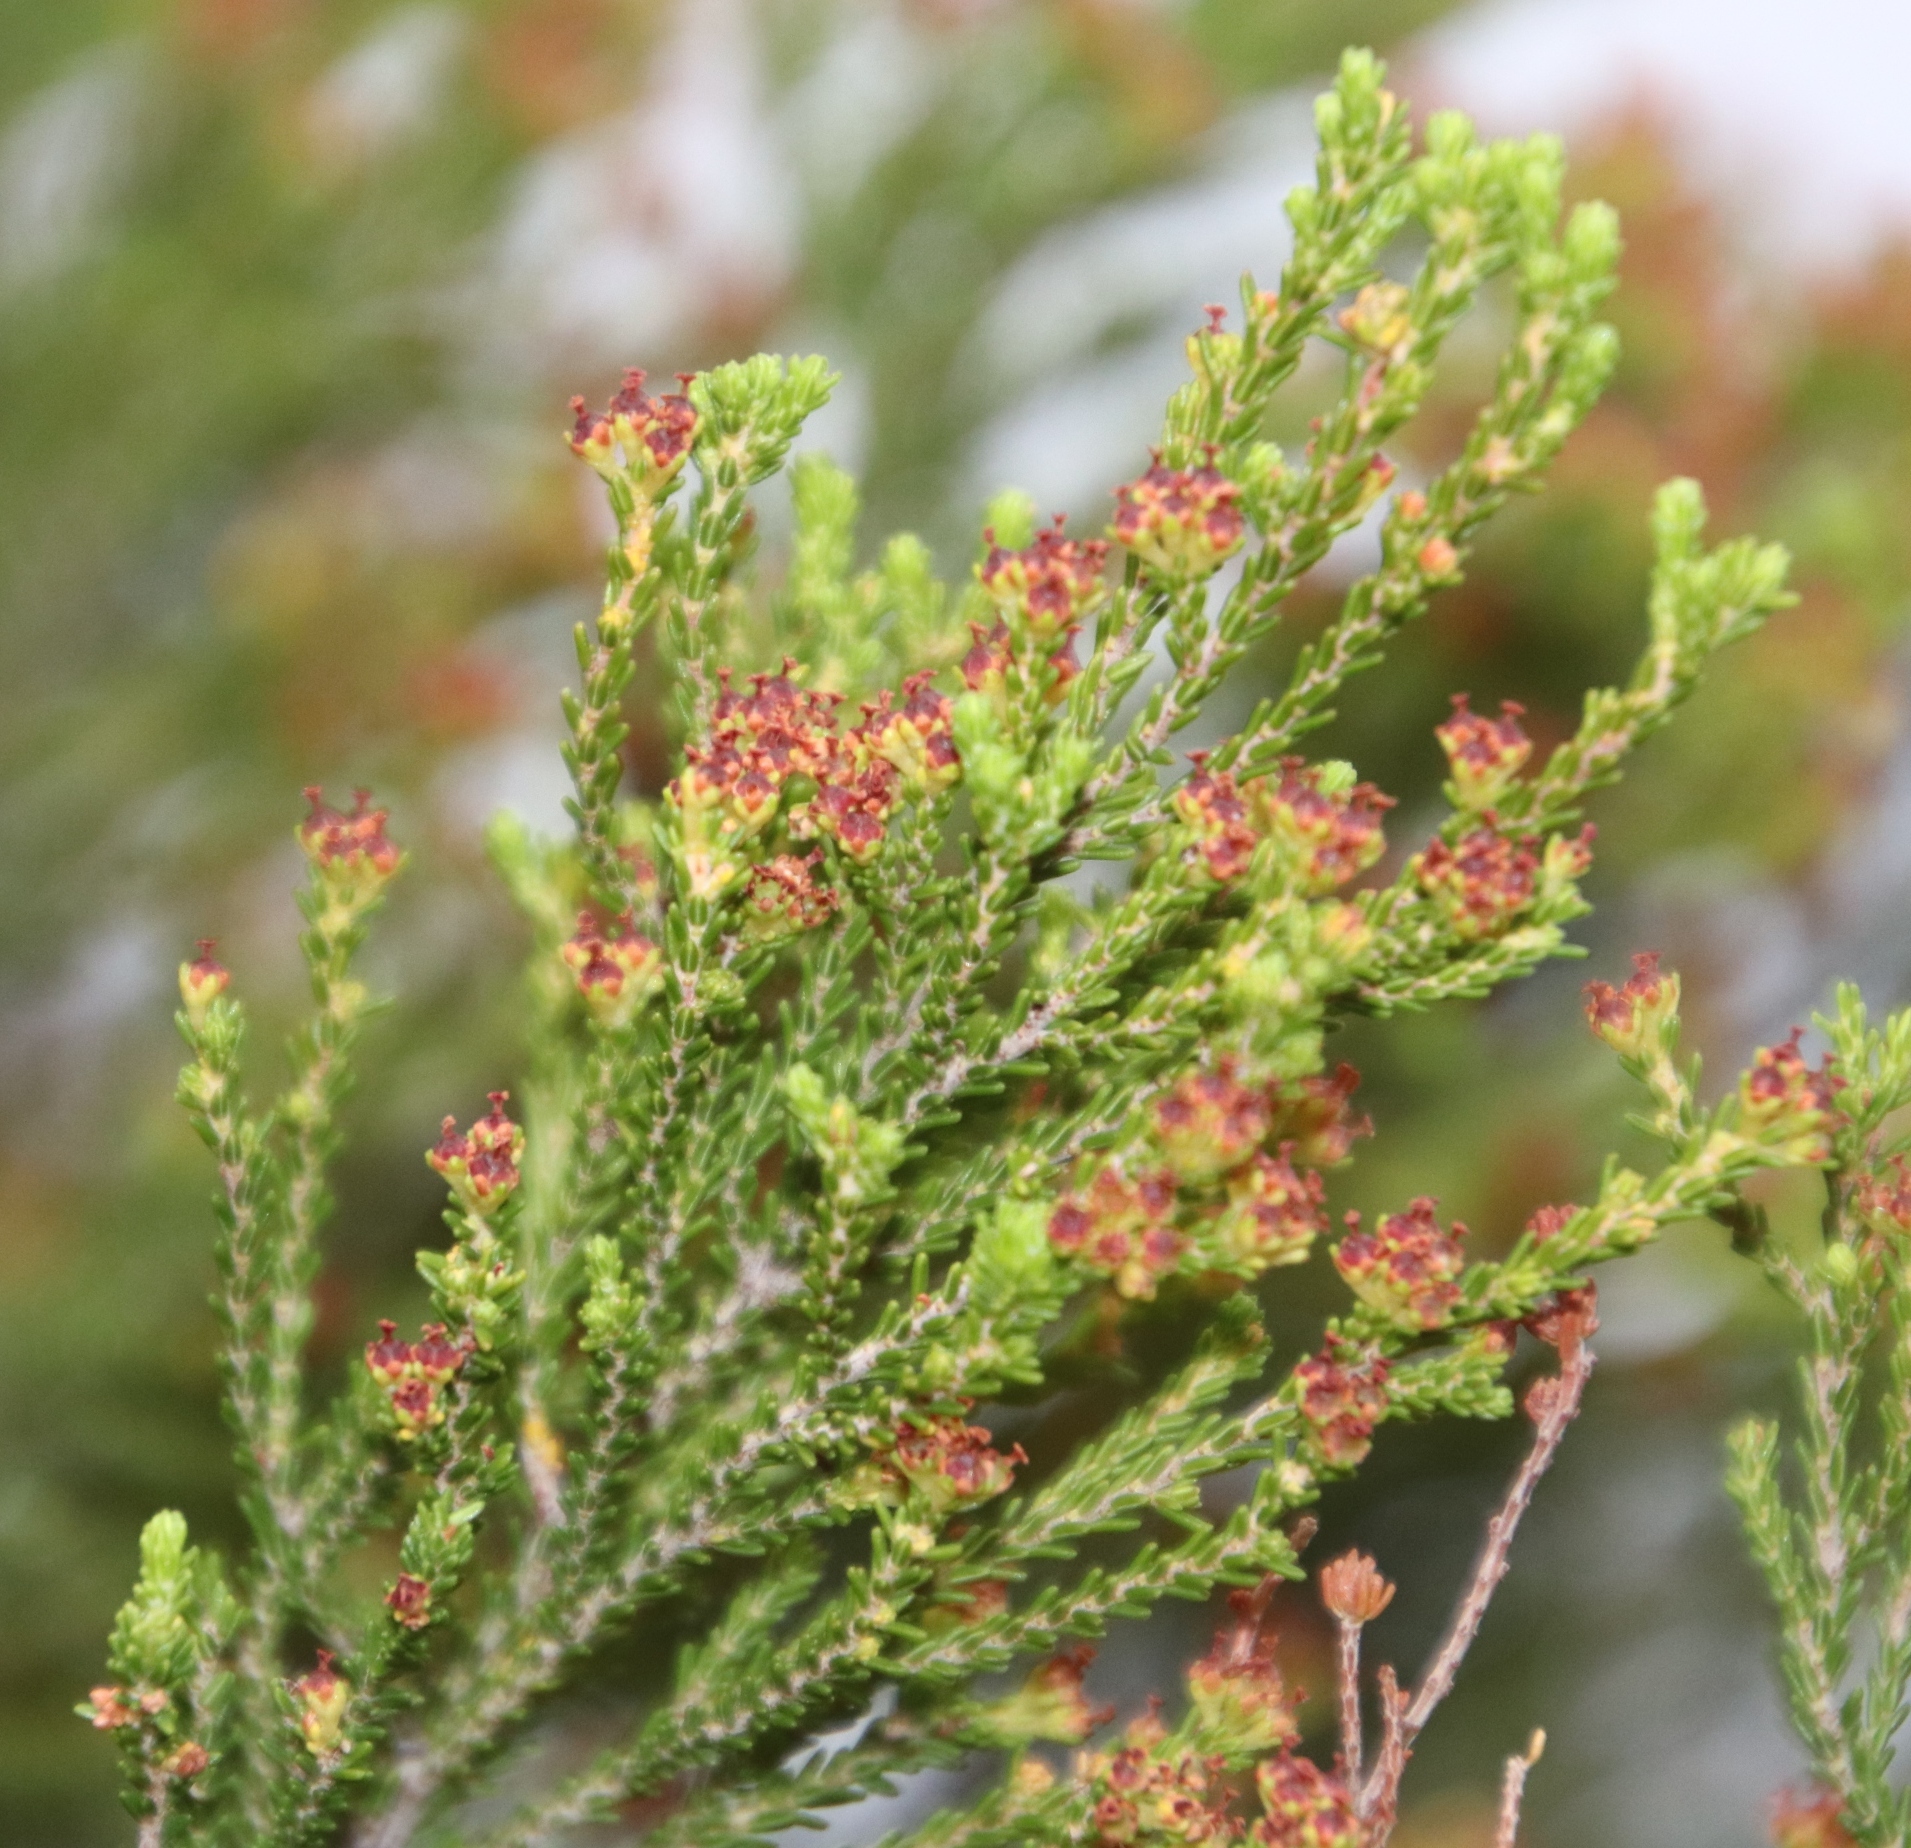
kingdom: Plantae
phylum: Tracheophyta
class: Magnoliopsida
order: Ericales
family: Ericaceae
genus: Erica
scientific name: Erica tristis
